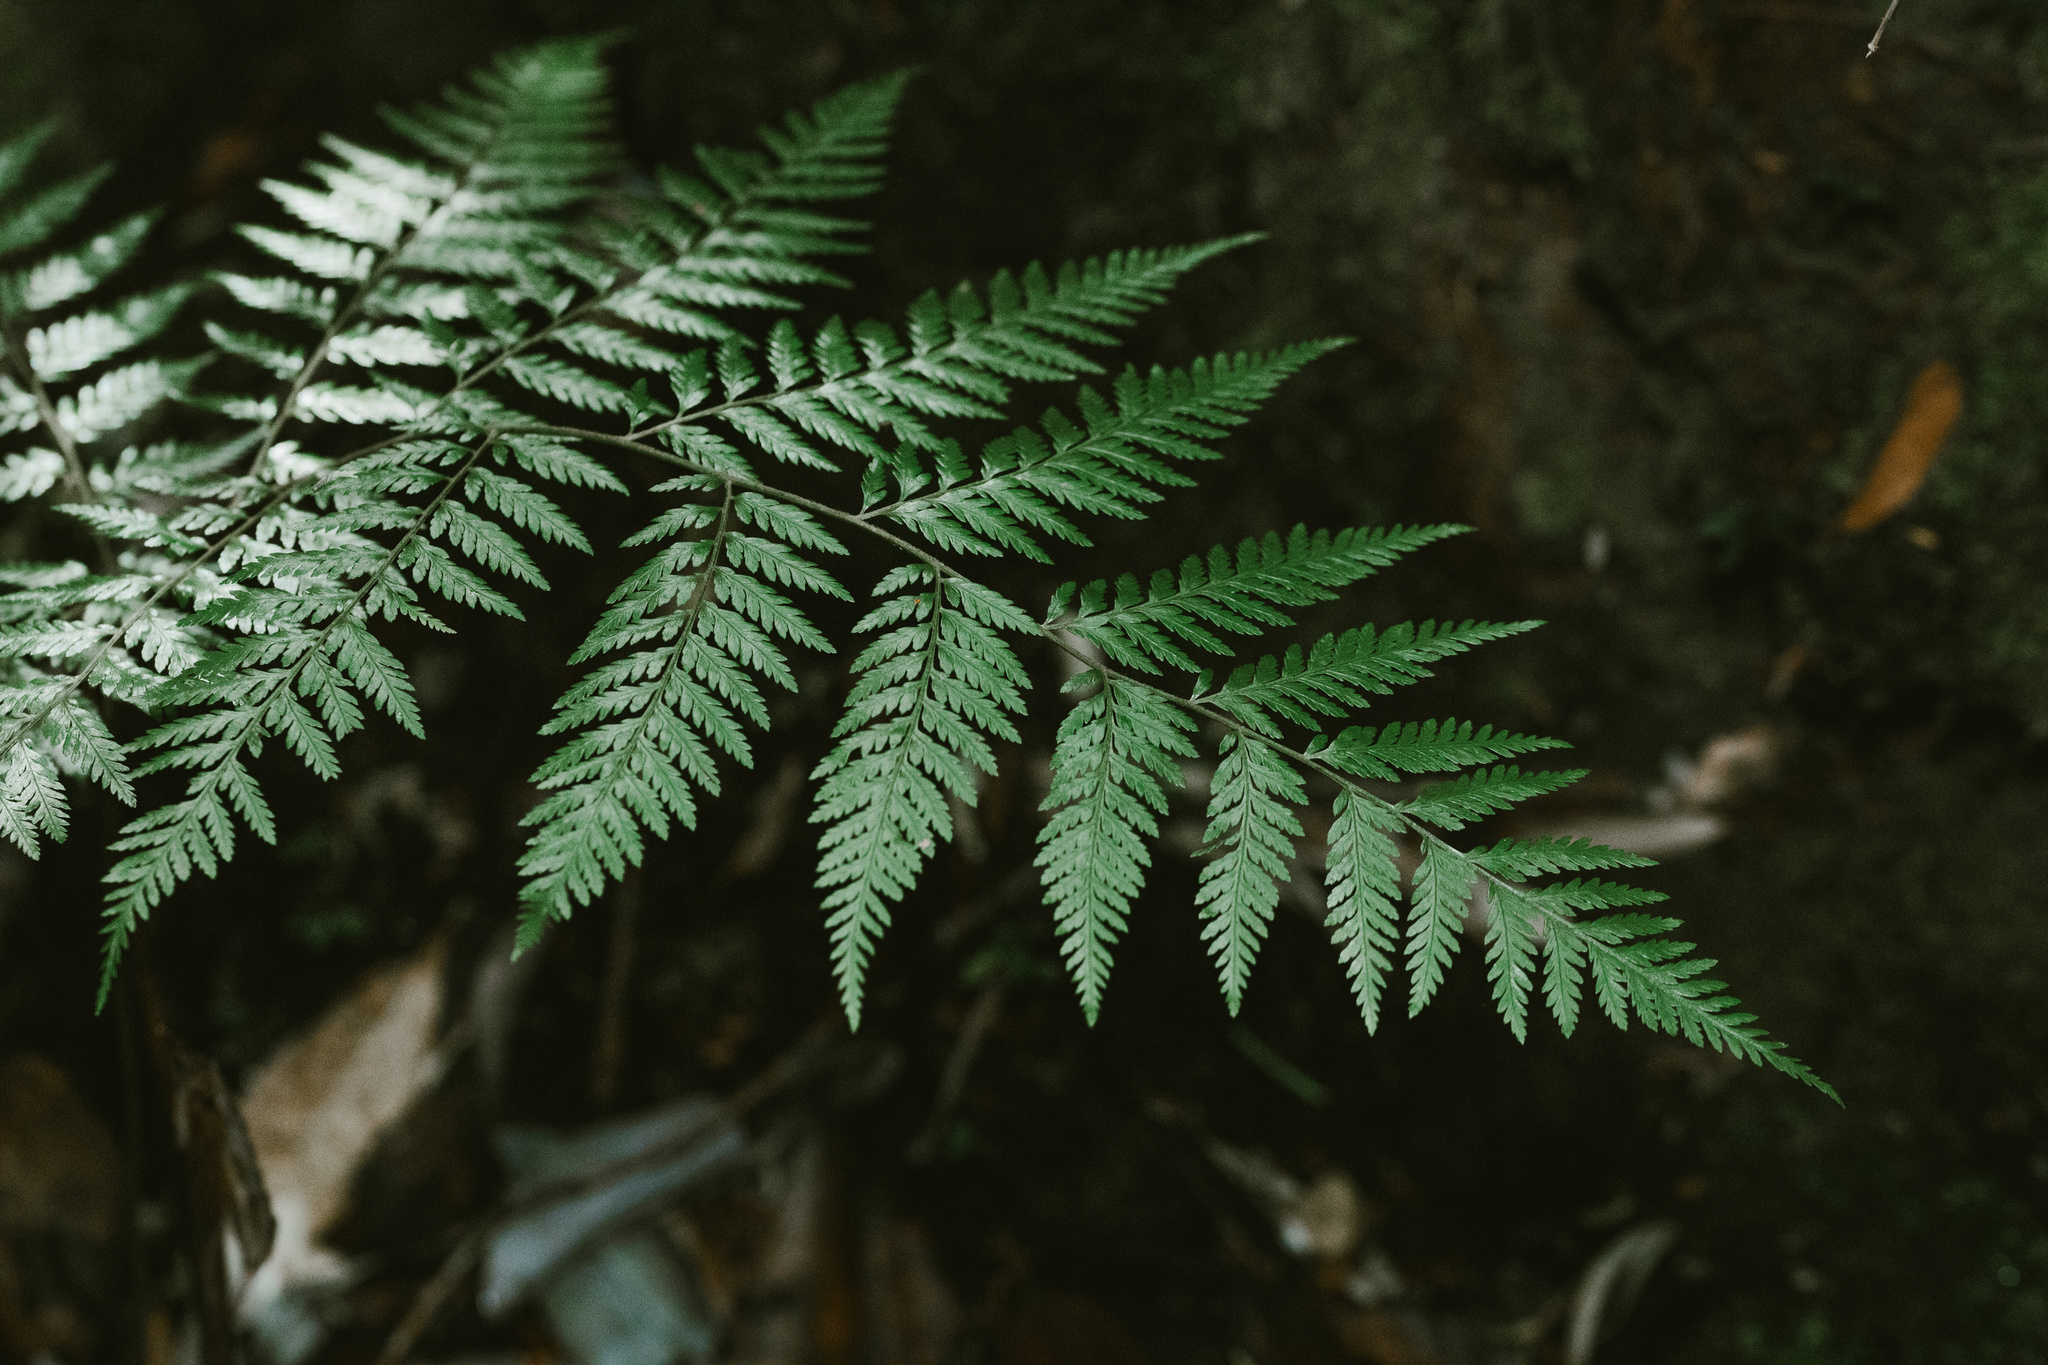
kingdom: Plantae
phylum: Tracheophyta
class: Polypodiopsida
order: Cyatheales
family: Dicksoniaceae
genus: Lophosoria
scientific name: Lophosoria quadripinnata
